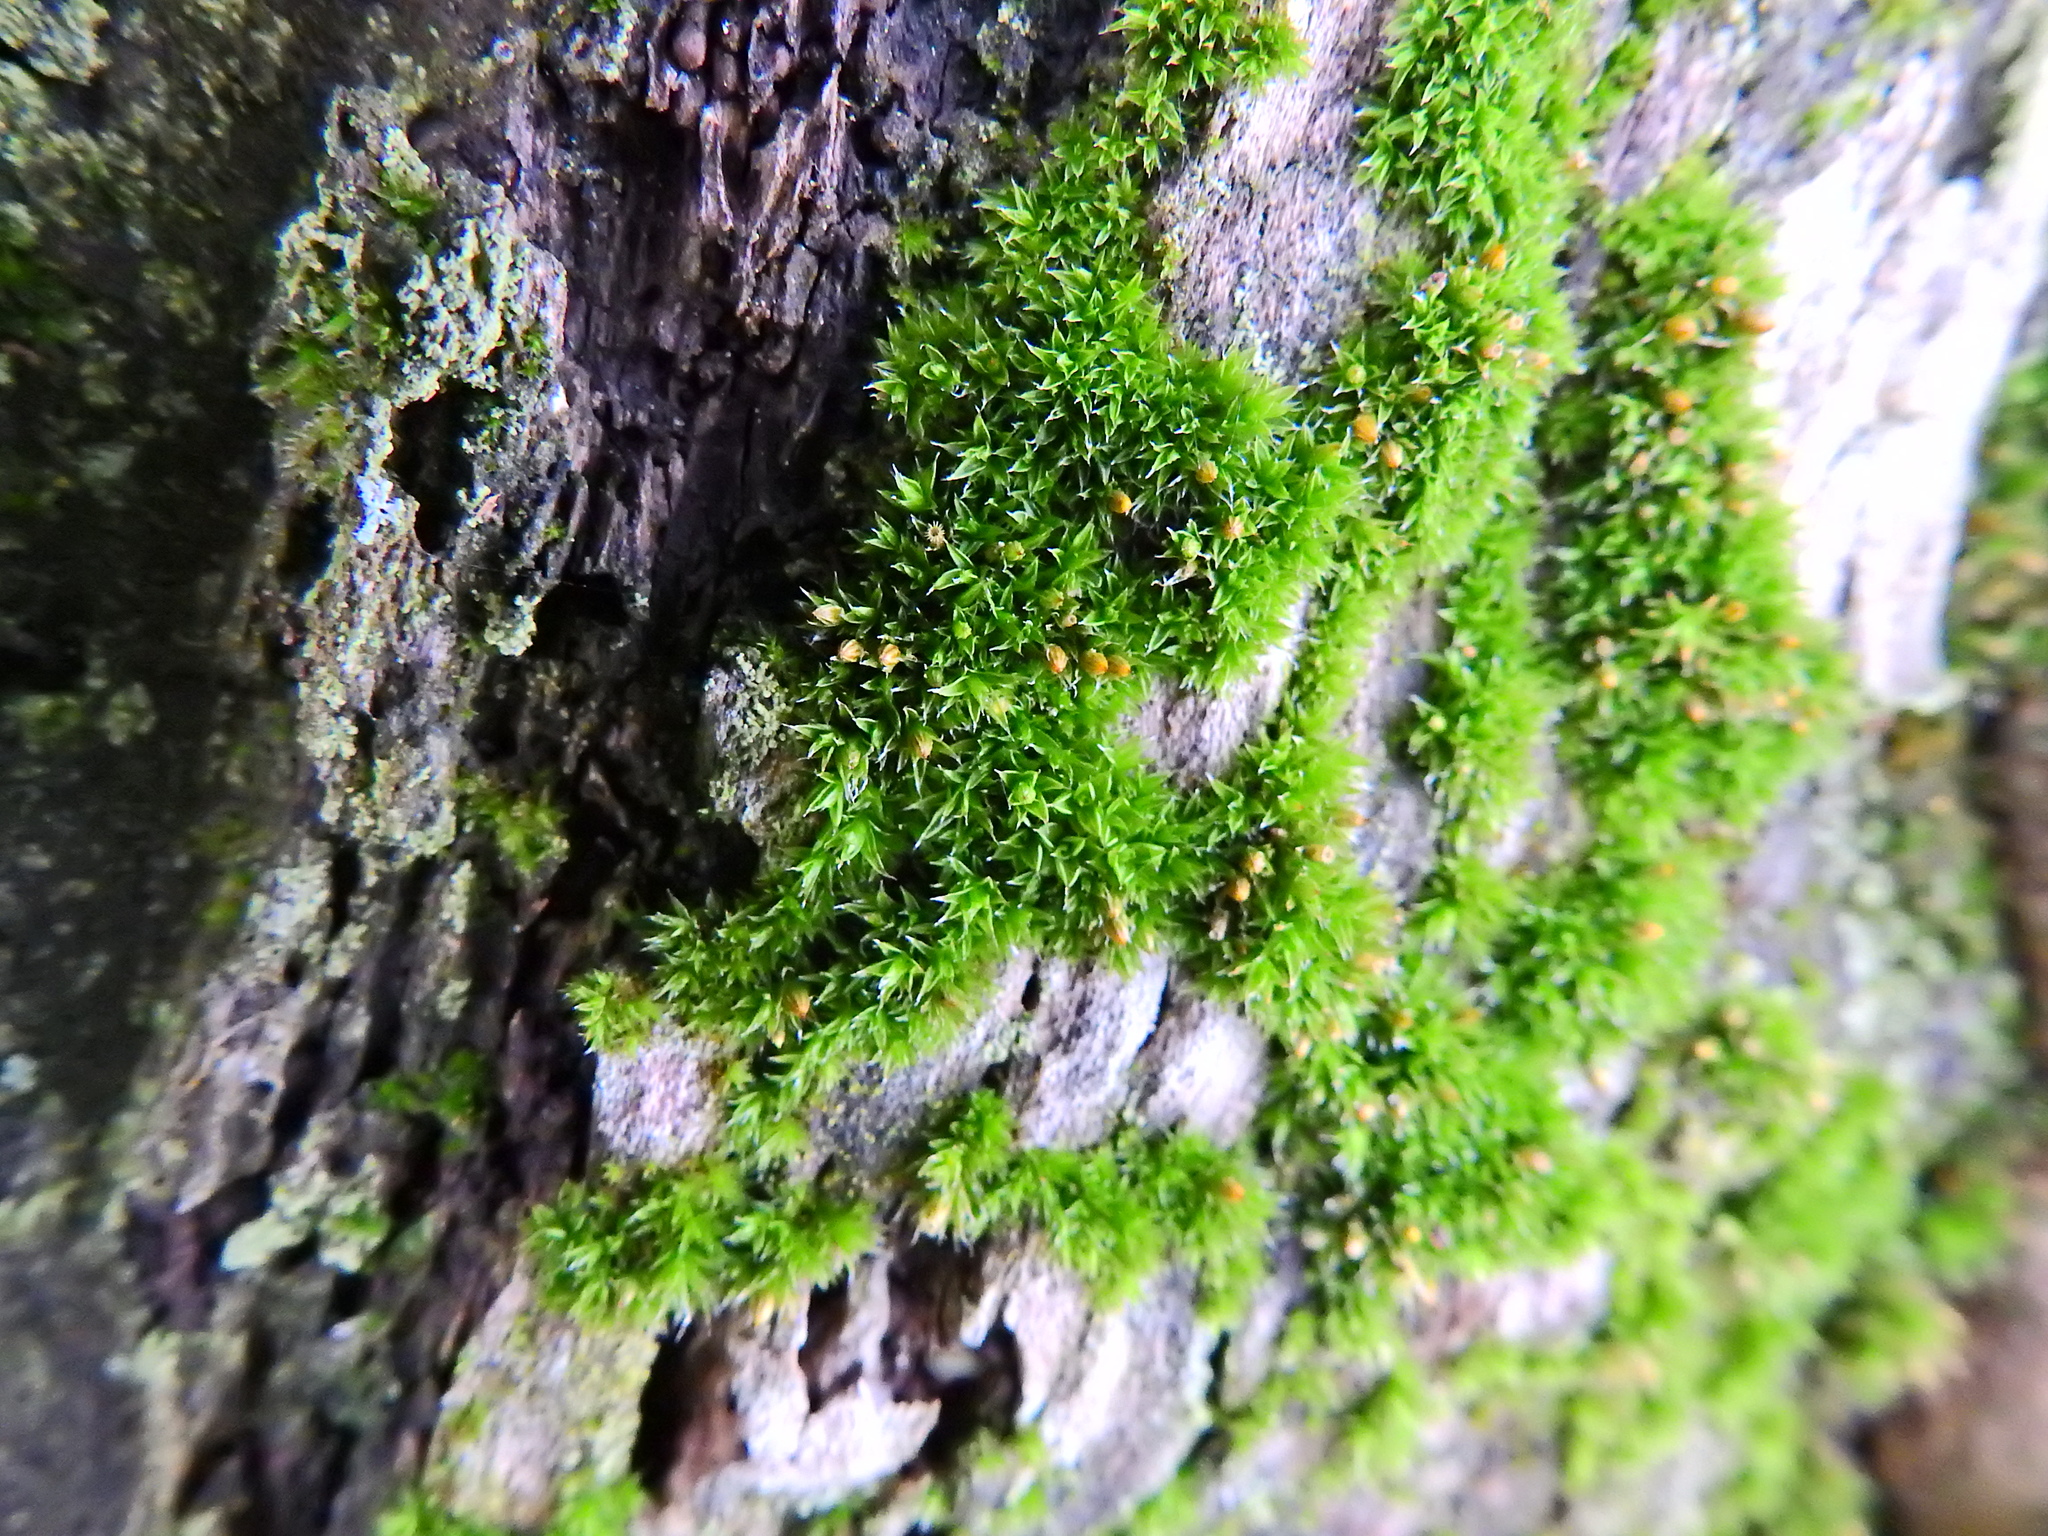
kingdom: Plantae
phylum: Bryophyta
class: Bryopsida
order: Orthotrichales
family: Orthotrichaceae
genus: Orthotrichum
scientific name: Orthotrichum diaphanum
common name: White-tipped bristle-moss
